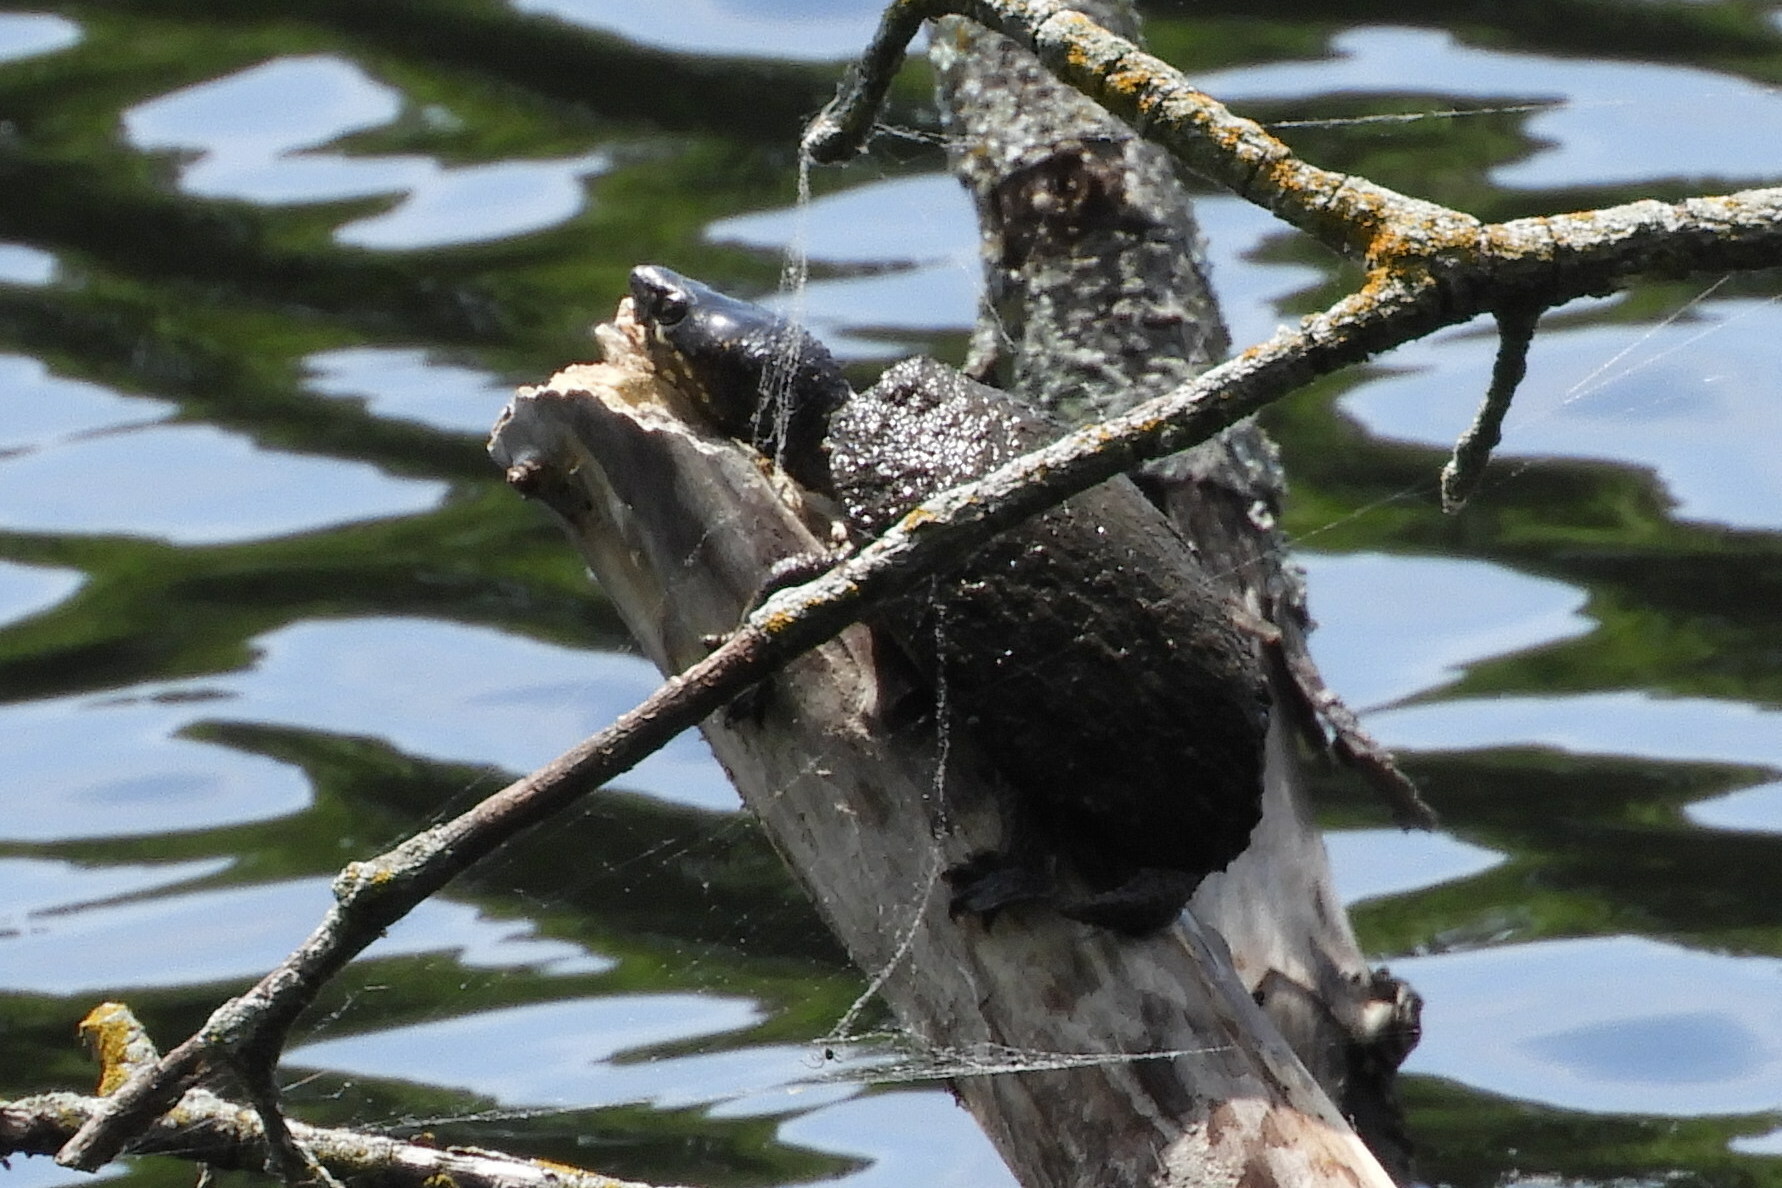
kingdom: Animalia
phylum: Chordata
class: Testudines
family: Kinosternidae
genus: Sternotherus
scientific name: Sternotherus odoratus
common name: Common musk turtle
